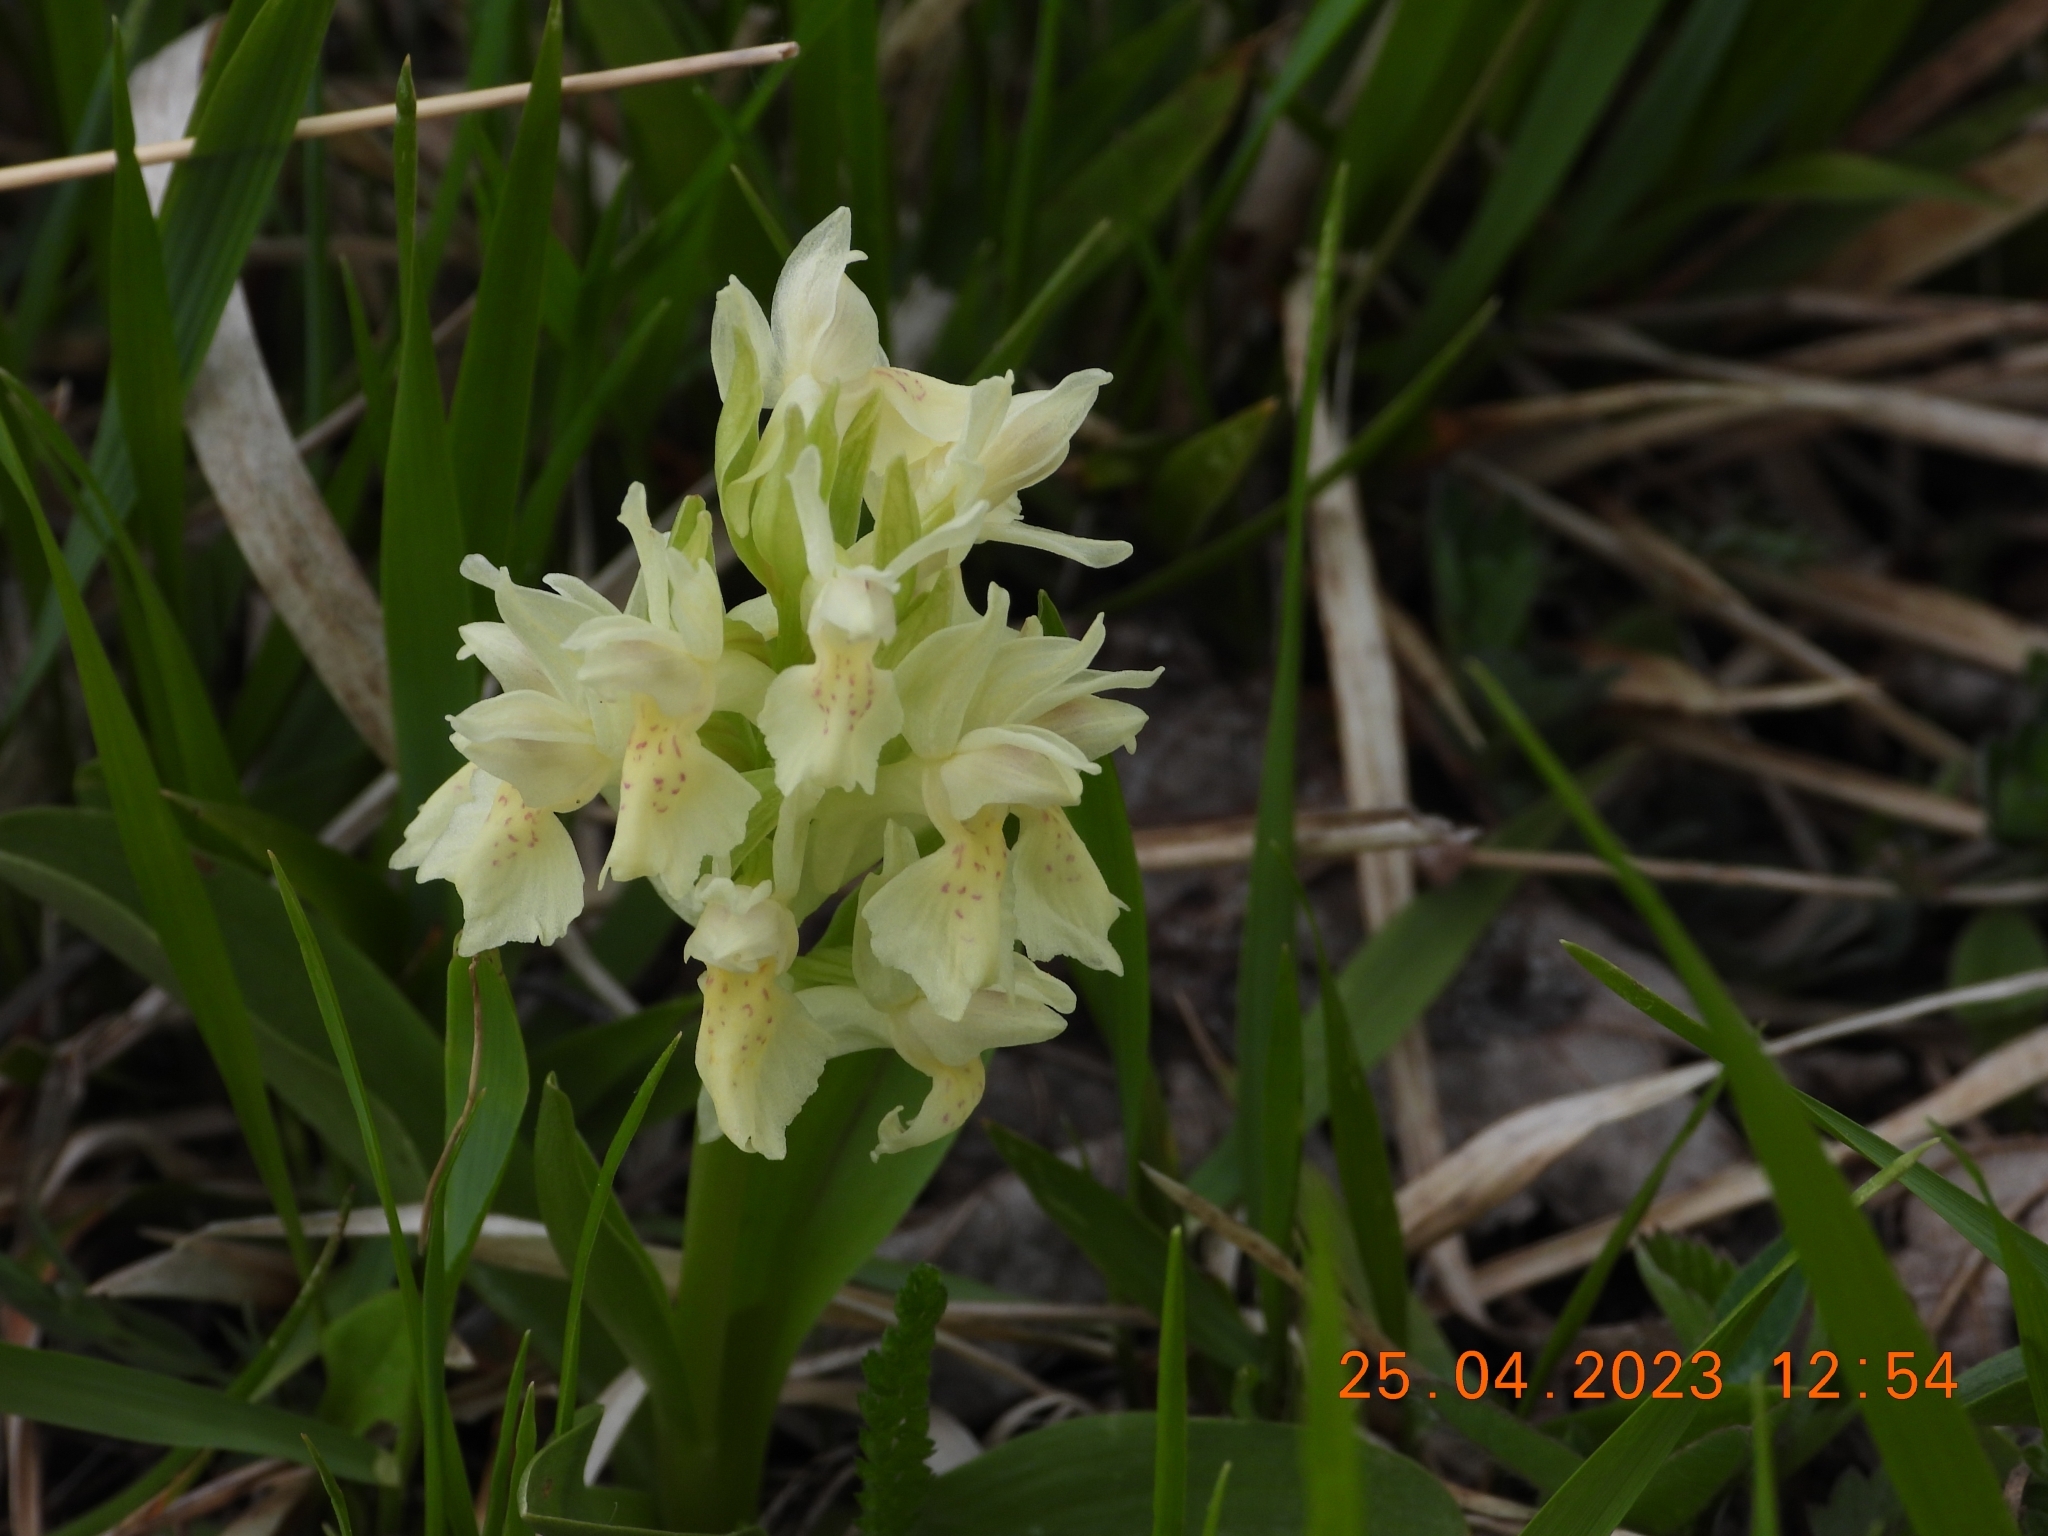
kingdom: Plantae
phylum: Tracheophyta
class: Liliopsida
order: Asparagales
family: Orchidaceae
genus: Dactylorhiza
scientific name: Dactylorhiza sambucina
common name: Elder-flowered orchid
